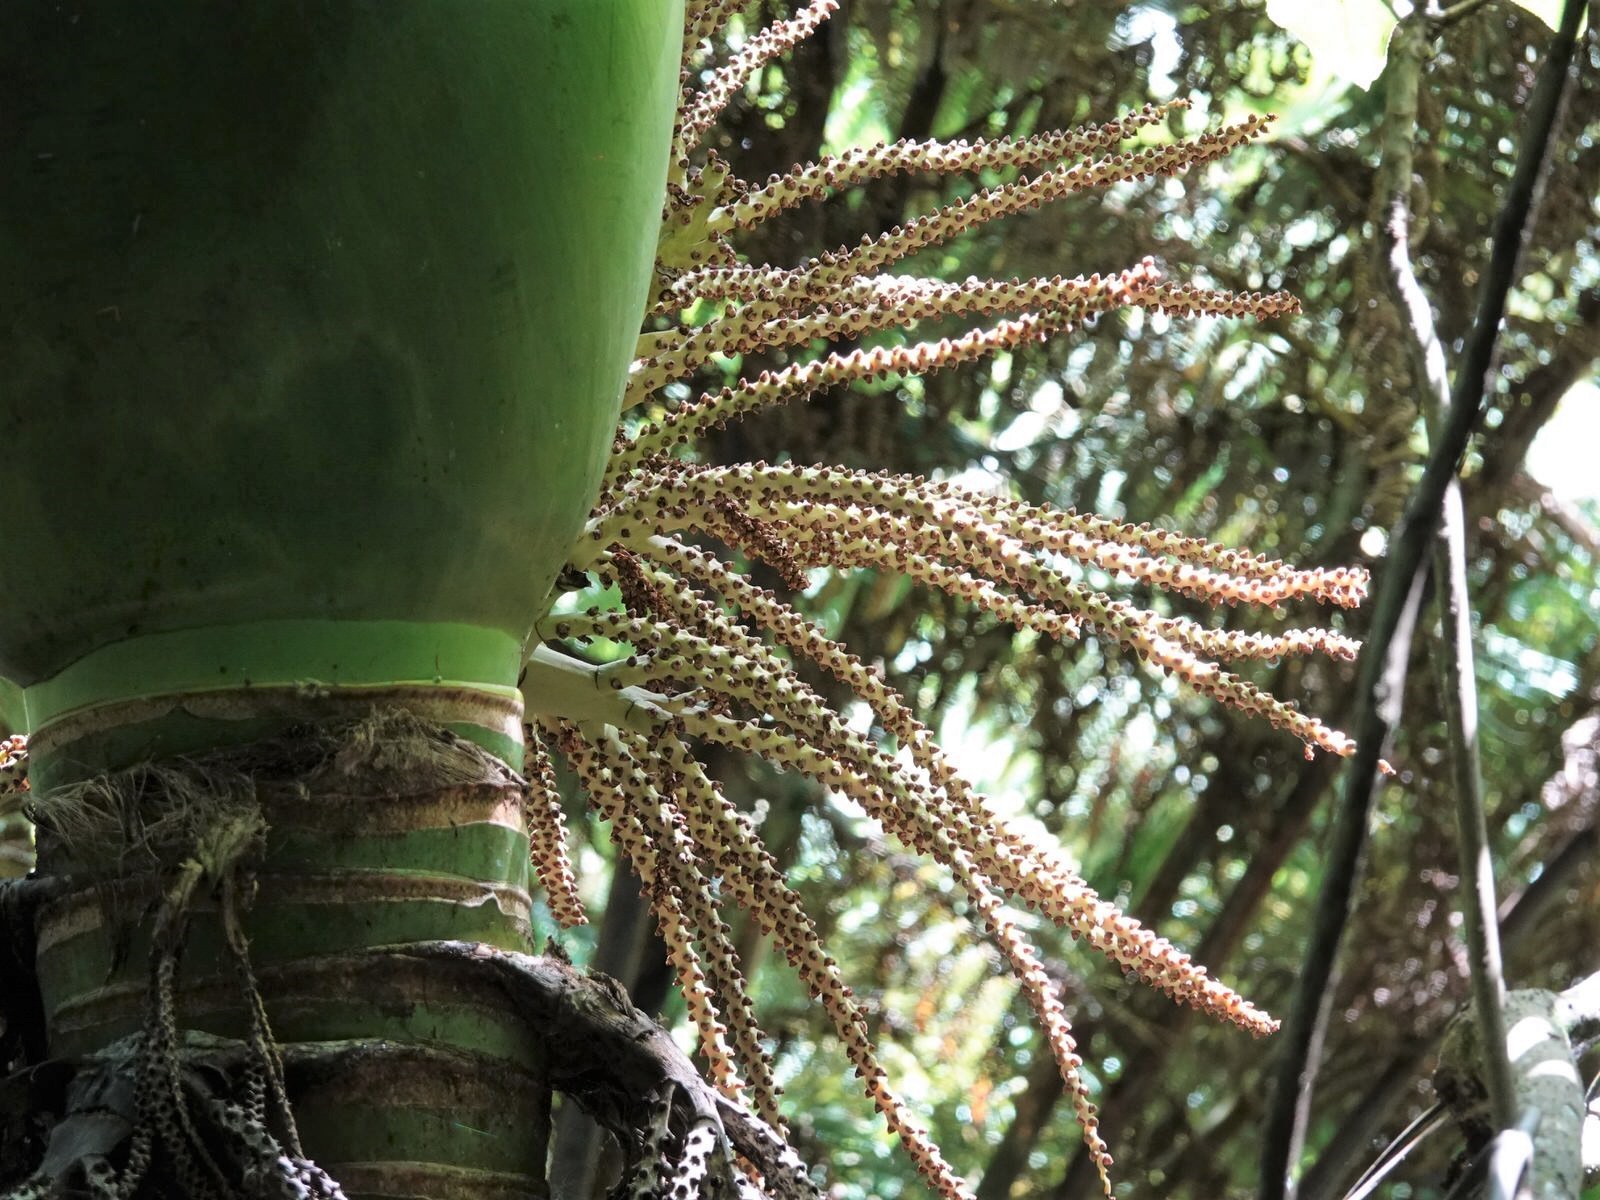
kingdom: Plantae
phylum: Tracheophyta
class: Liliopsida
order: Arecales
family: Arecaceae
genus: Rhopalostylis
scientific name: Rhopalostylis sapida
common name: Feather-duster palm
